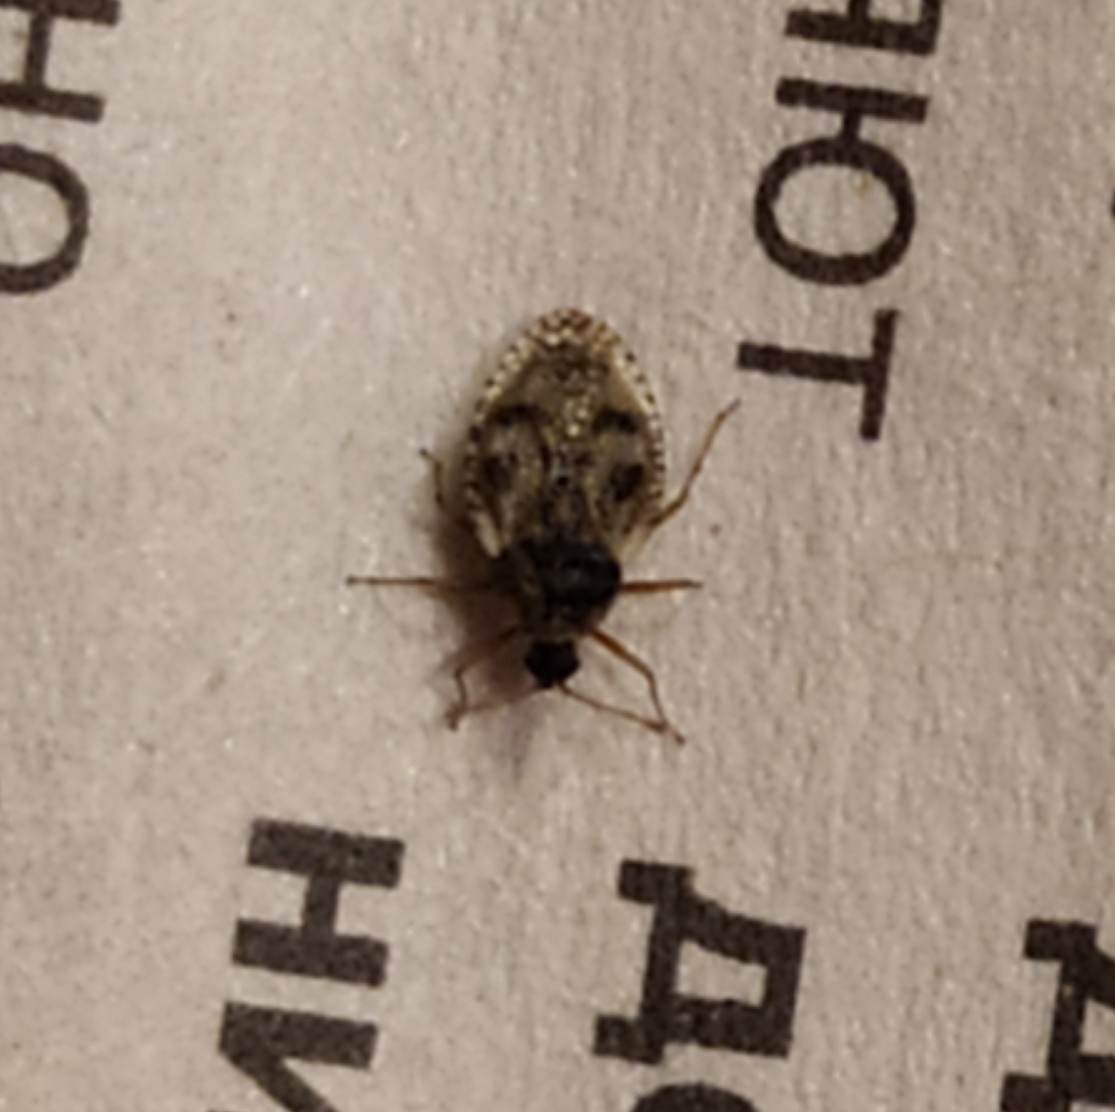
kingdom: Animalia
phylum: Arthropoda
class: Insecta
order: Hemiptera
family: Tingidae
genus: Dictyla
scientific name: Dictyla humuli
